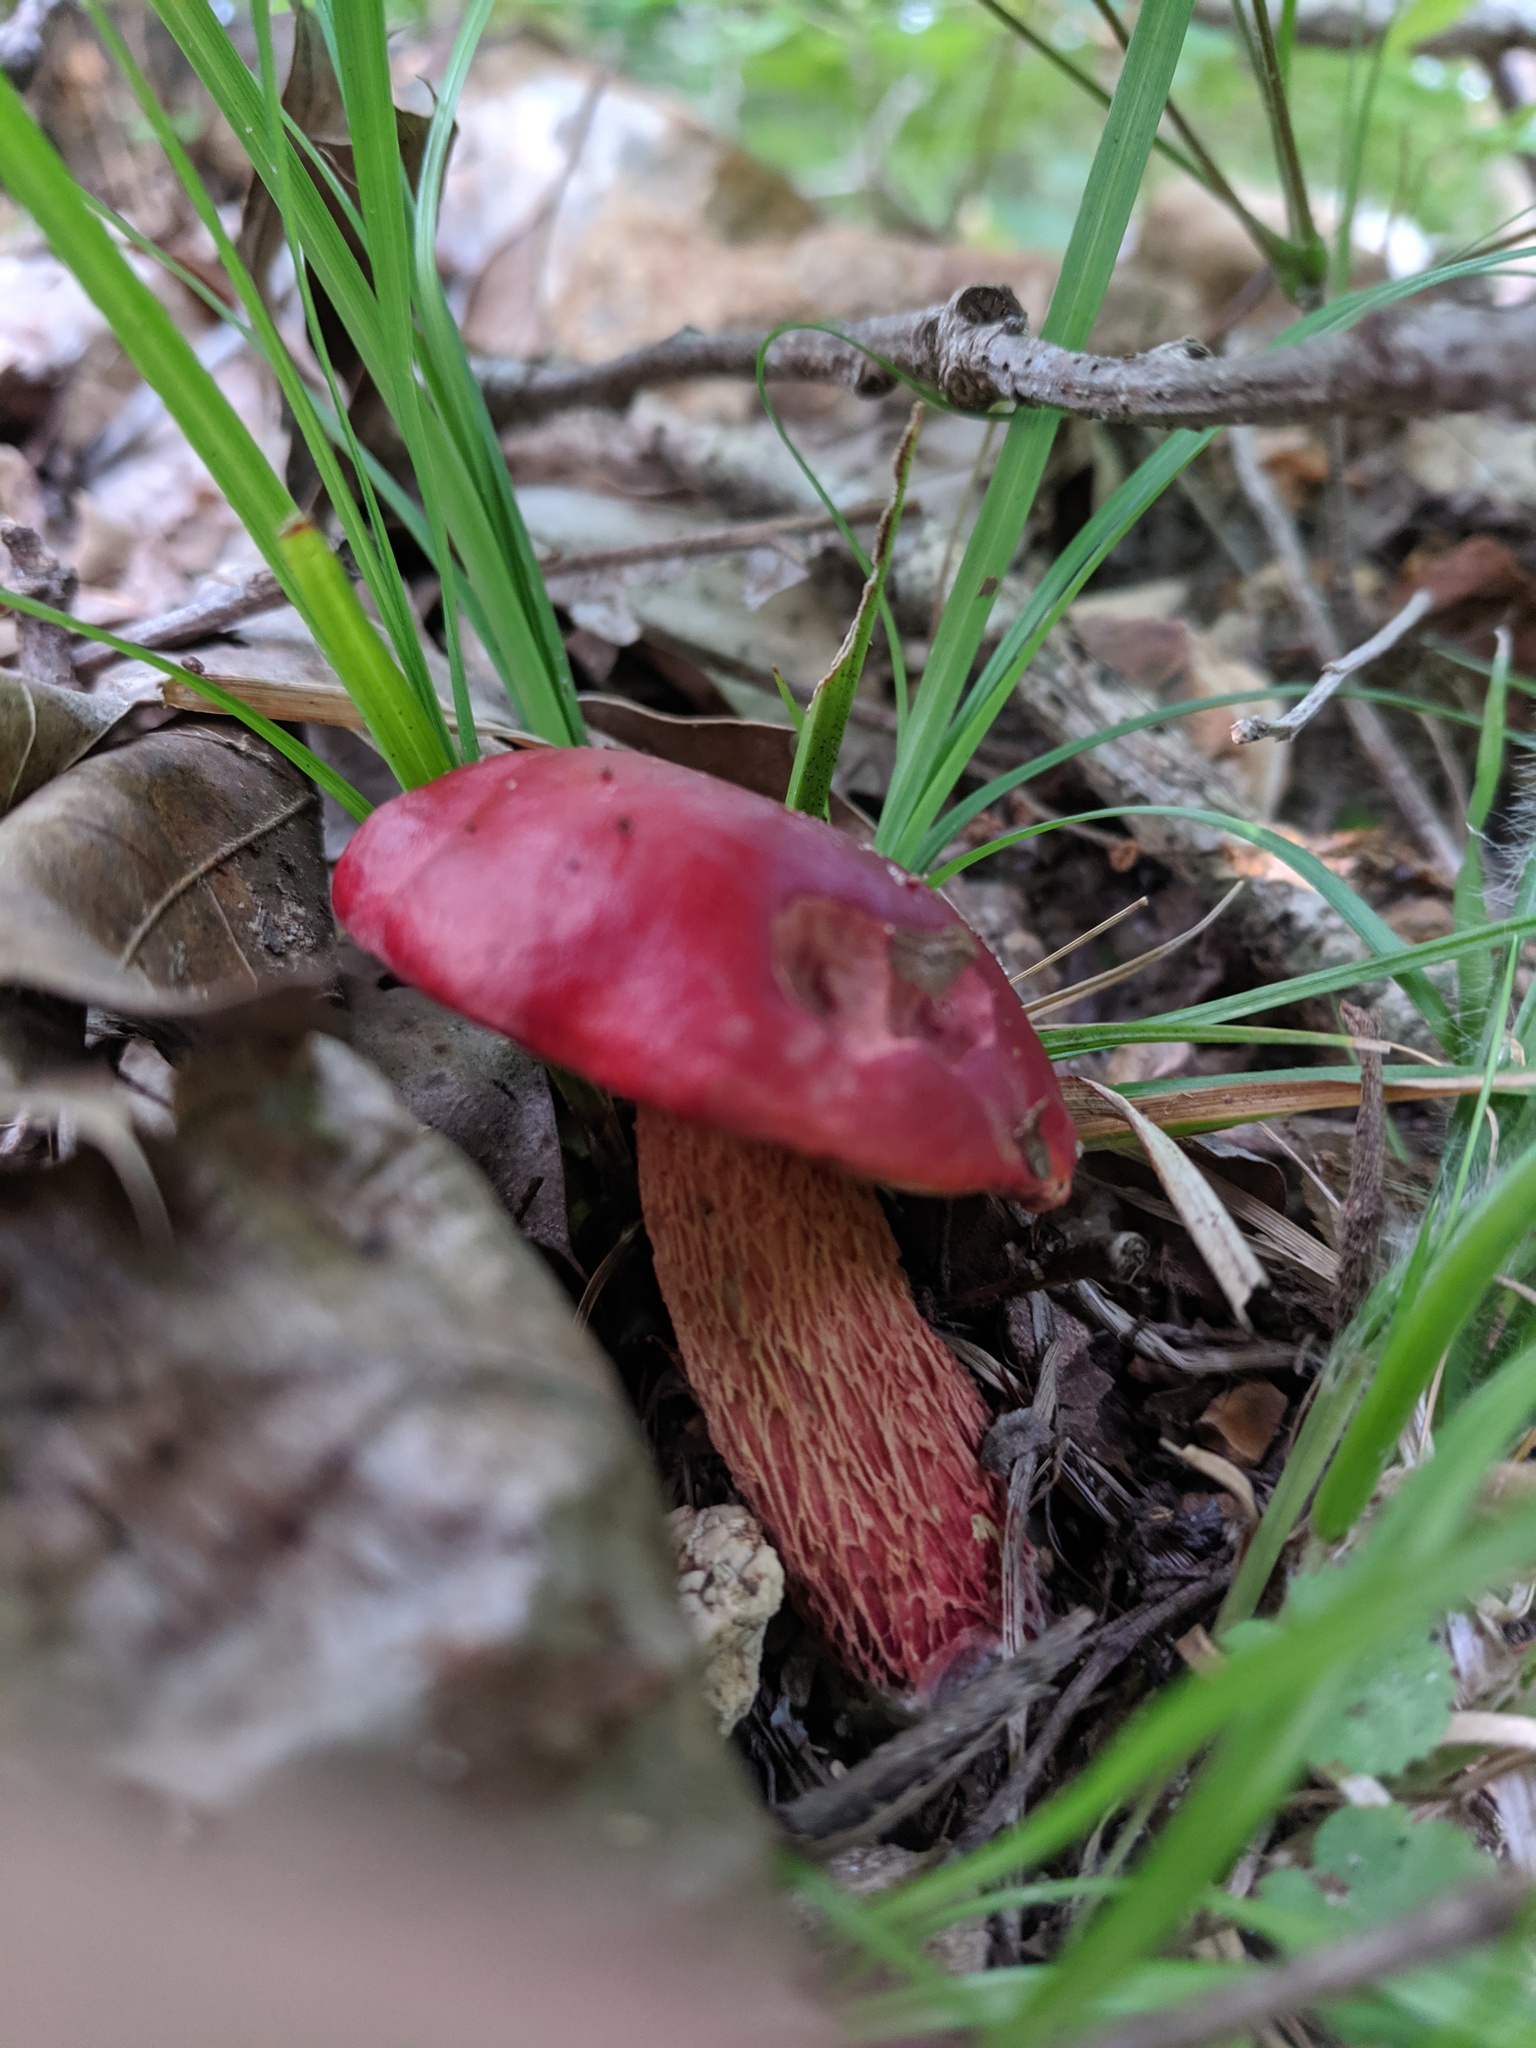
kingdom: Fungi
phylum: Basidiomycota
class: Agaricomycetes
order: Boletales
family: Boletaceae
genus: Butyriboletus
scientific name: Butyriboletus frostii
